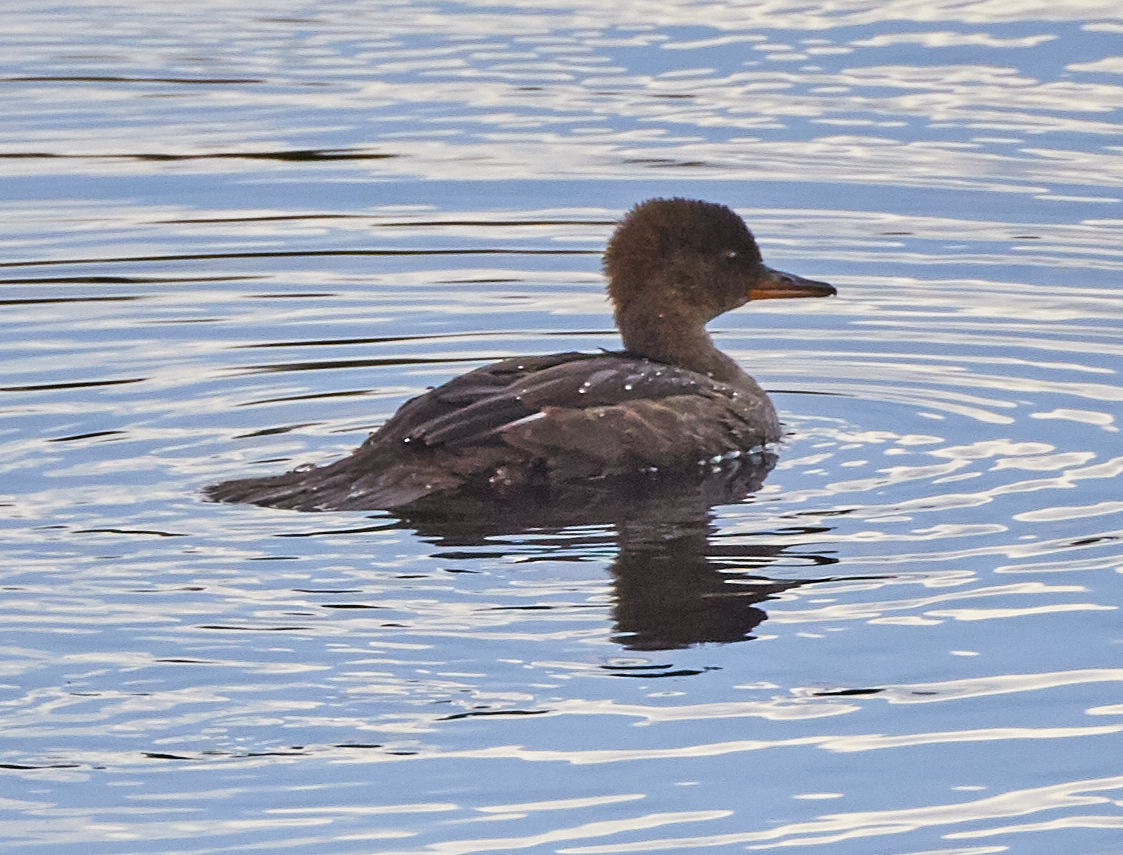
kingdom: Animalia
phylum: Chordata
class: Aves
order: Anseriformes
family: Anatidae
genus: Lophodytes
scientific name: Lophodytes cucullatus
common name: Hooded merganser
